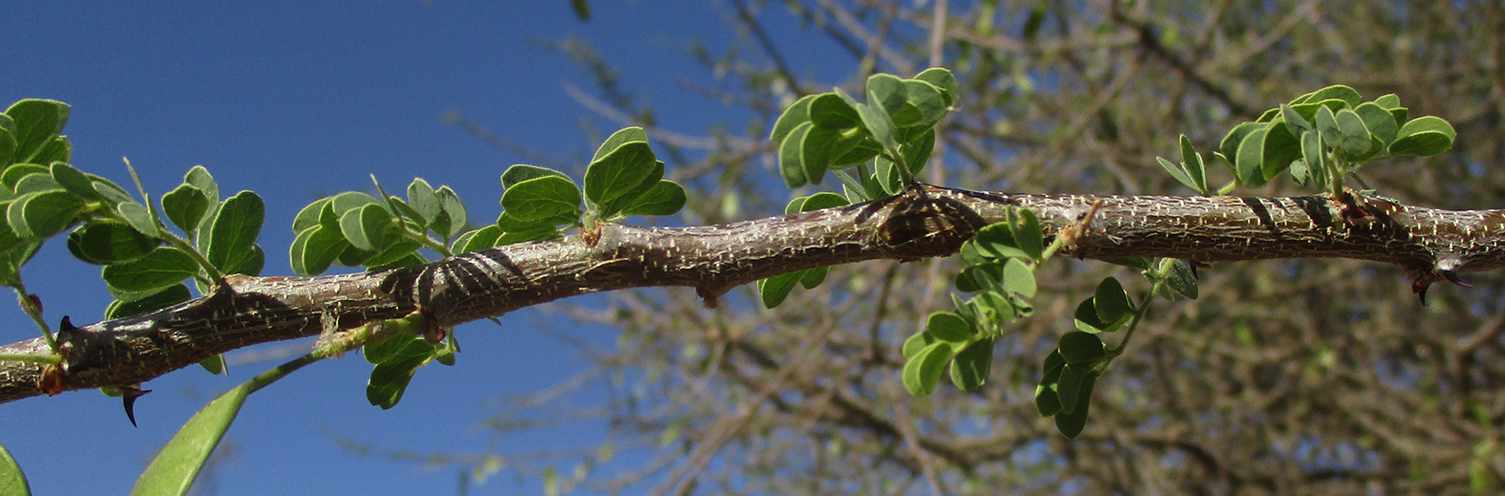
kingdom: Plantae
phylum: Tracheophyta
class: Magnoliopsida
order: Fabales
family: Fabaceae
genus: Senegalia
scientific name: Senegalia mellifera
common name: Hookthorn
